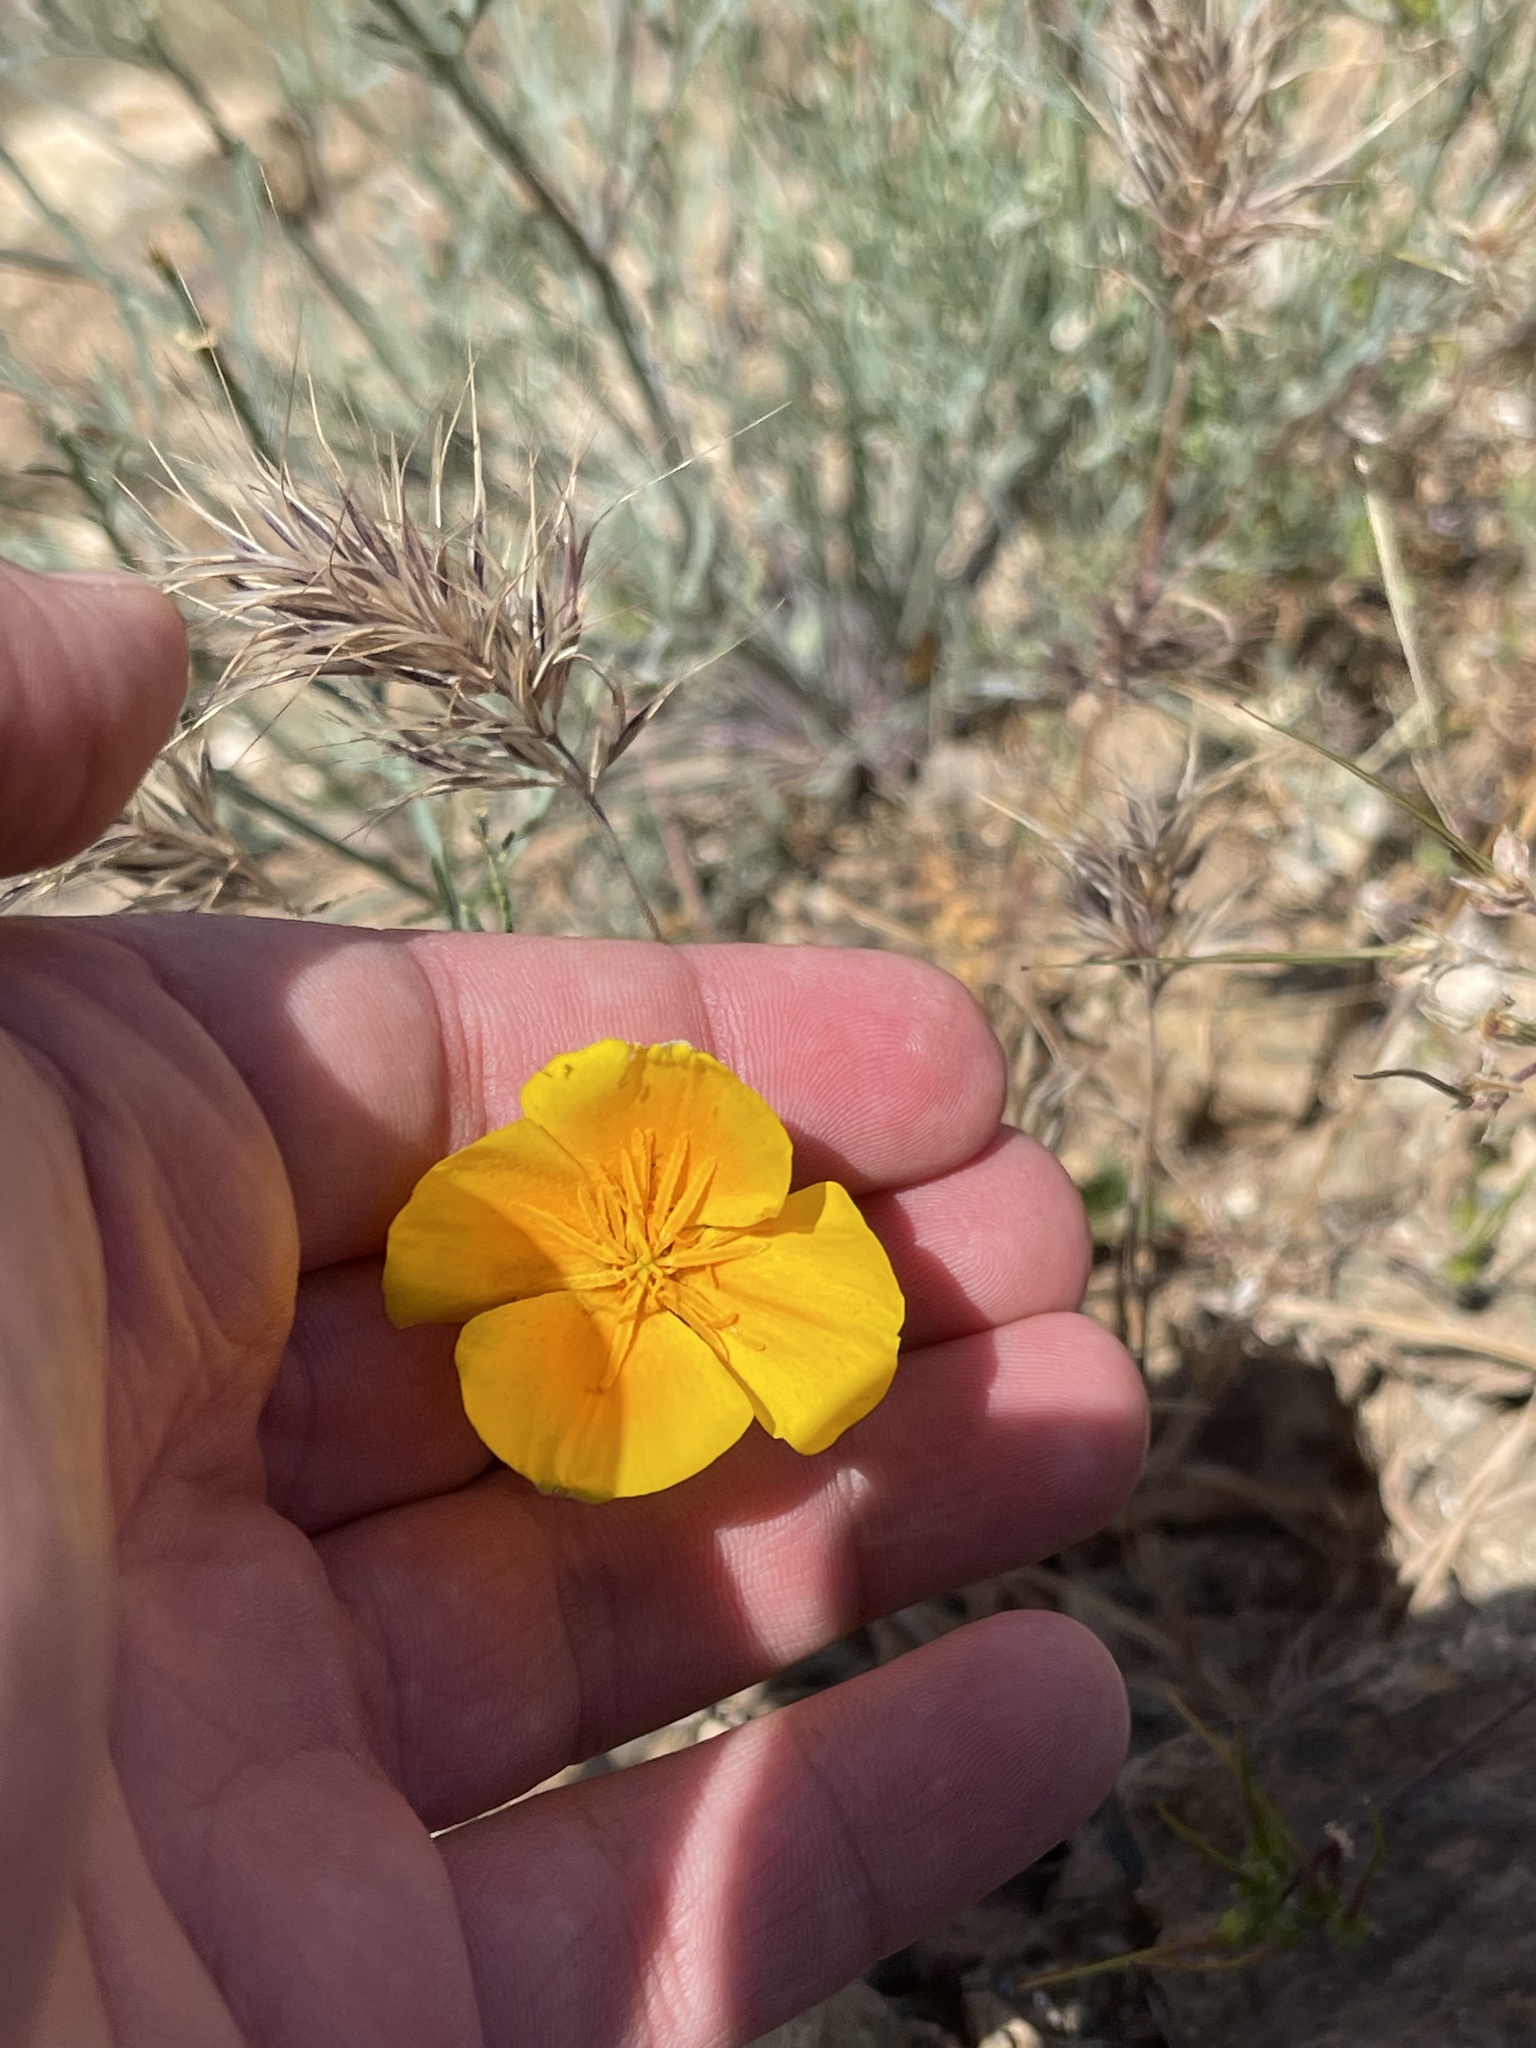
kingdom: Plantae
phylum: Tracheophyta
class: Magnoliopsida
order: Ranunculales
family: Papaveraceae
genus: Eschscholzia
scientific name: Eschscholzia californica
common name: California poppy
